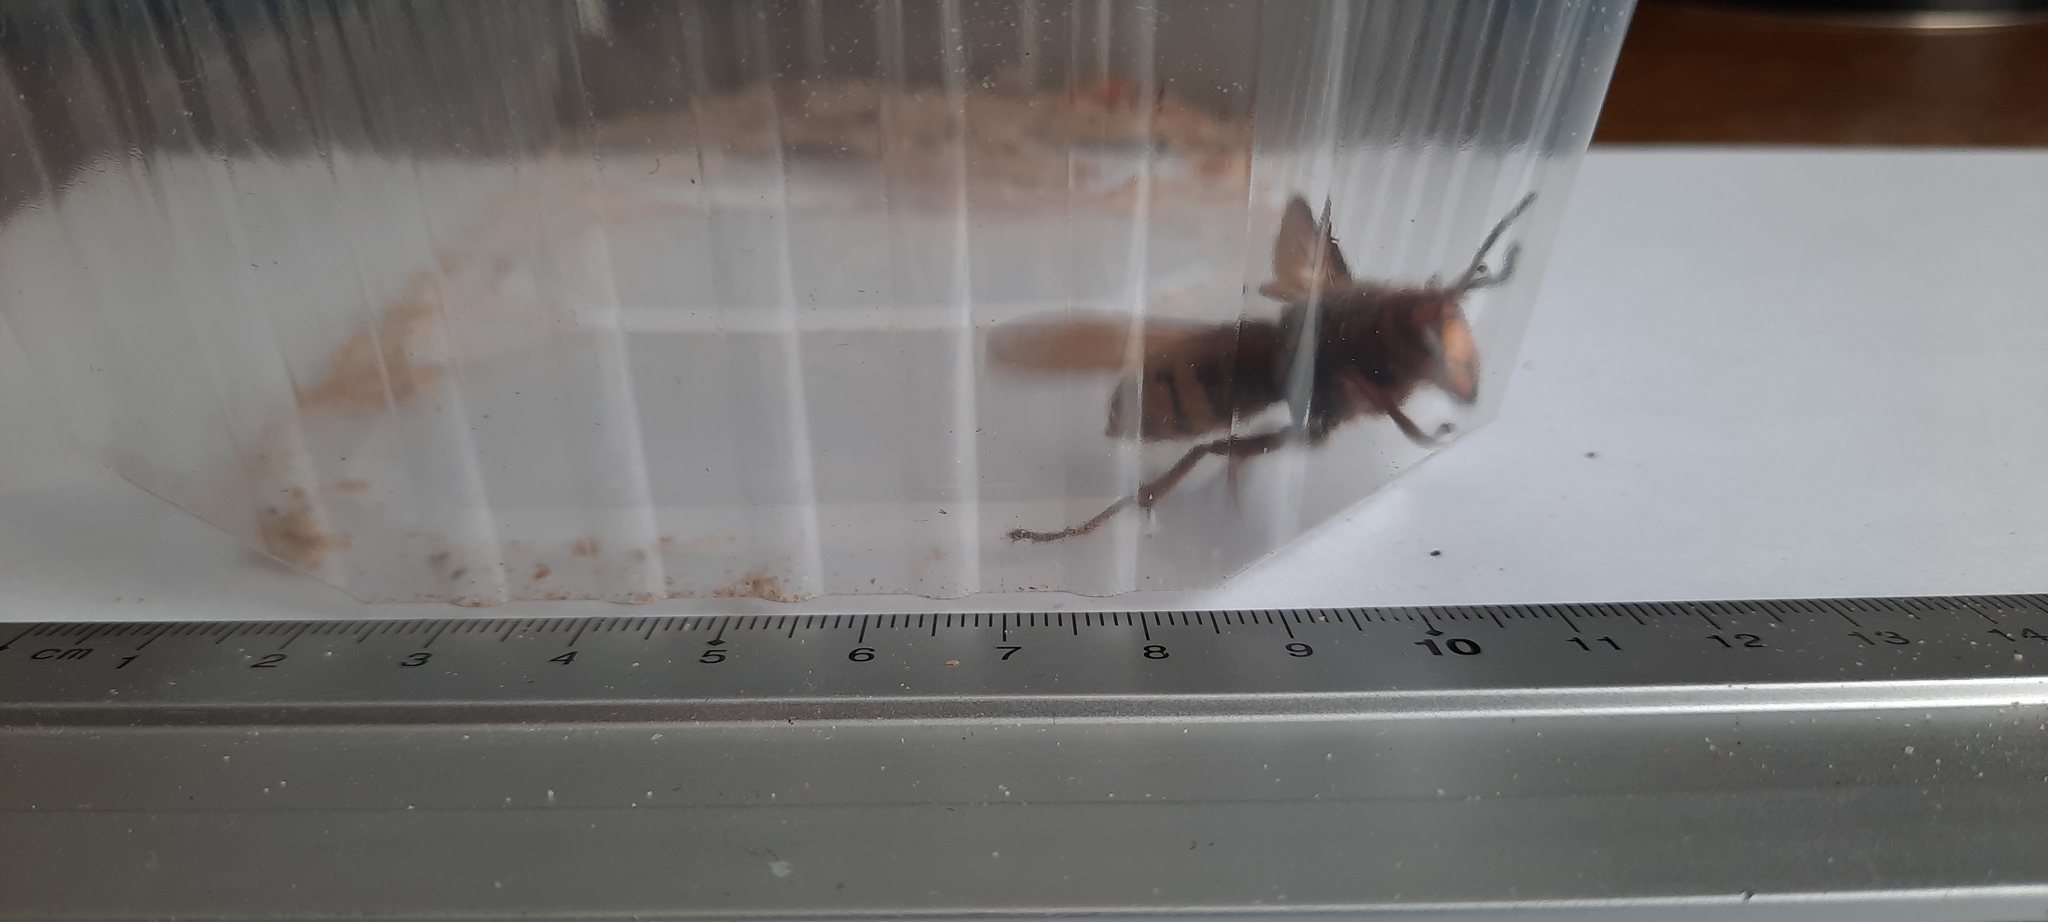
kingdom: Animalia
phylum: Arthropoda
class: Insecta
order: Hymenoptera
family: Vespidae
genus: Vespa
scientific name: Vespa crabro
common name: Hornet
